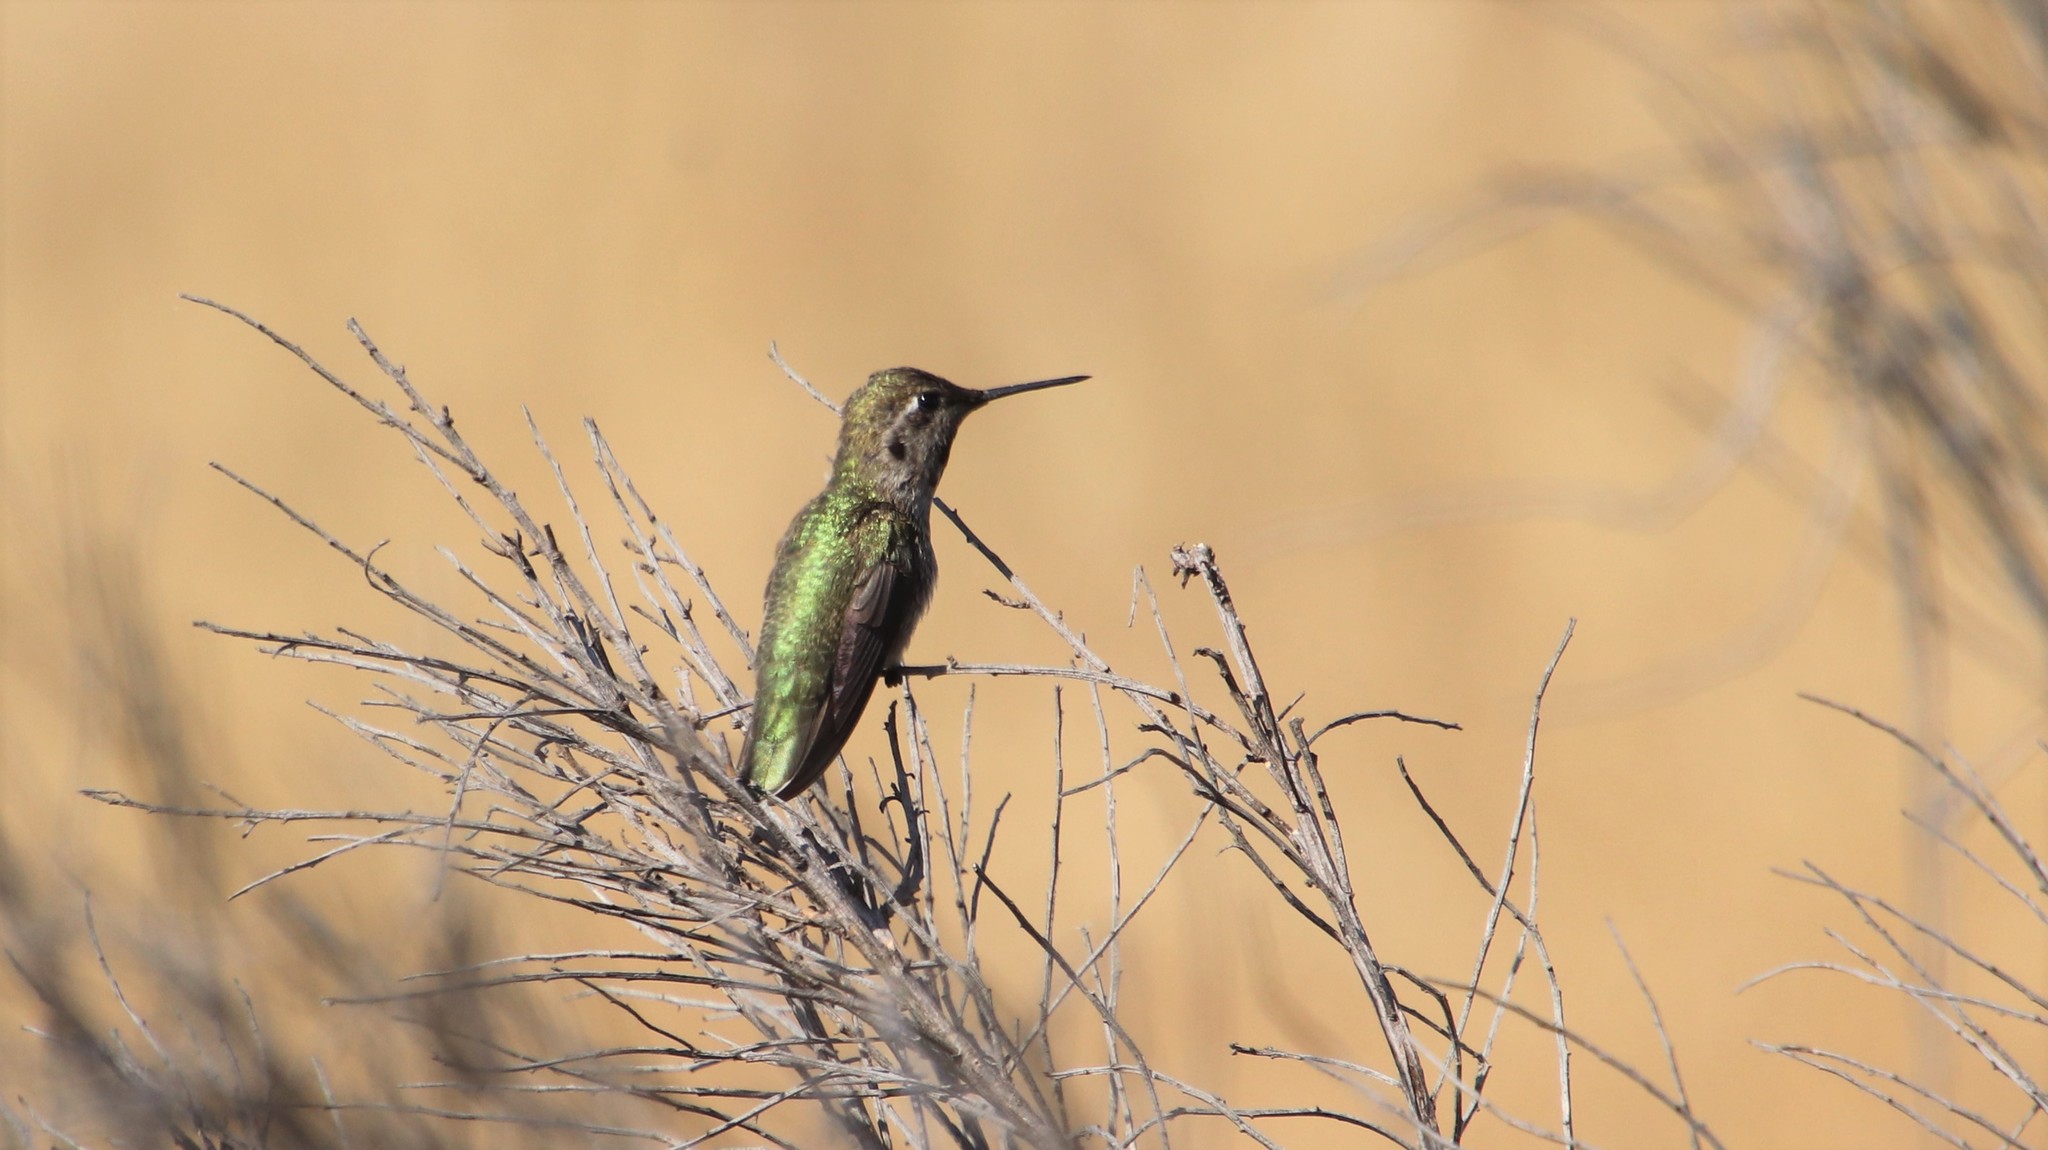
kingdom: Animalia
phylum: Chordata
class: Aves
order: Apodiformes
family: Trochilidae
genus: Calypte
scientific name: Calypte anna
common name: Anna's hummingbird
